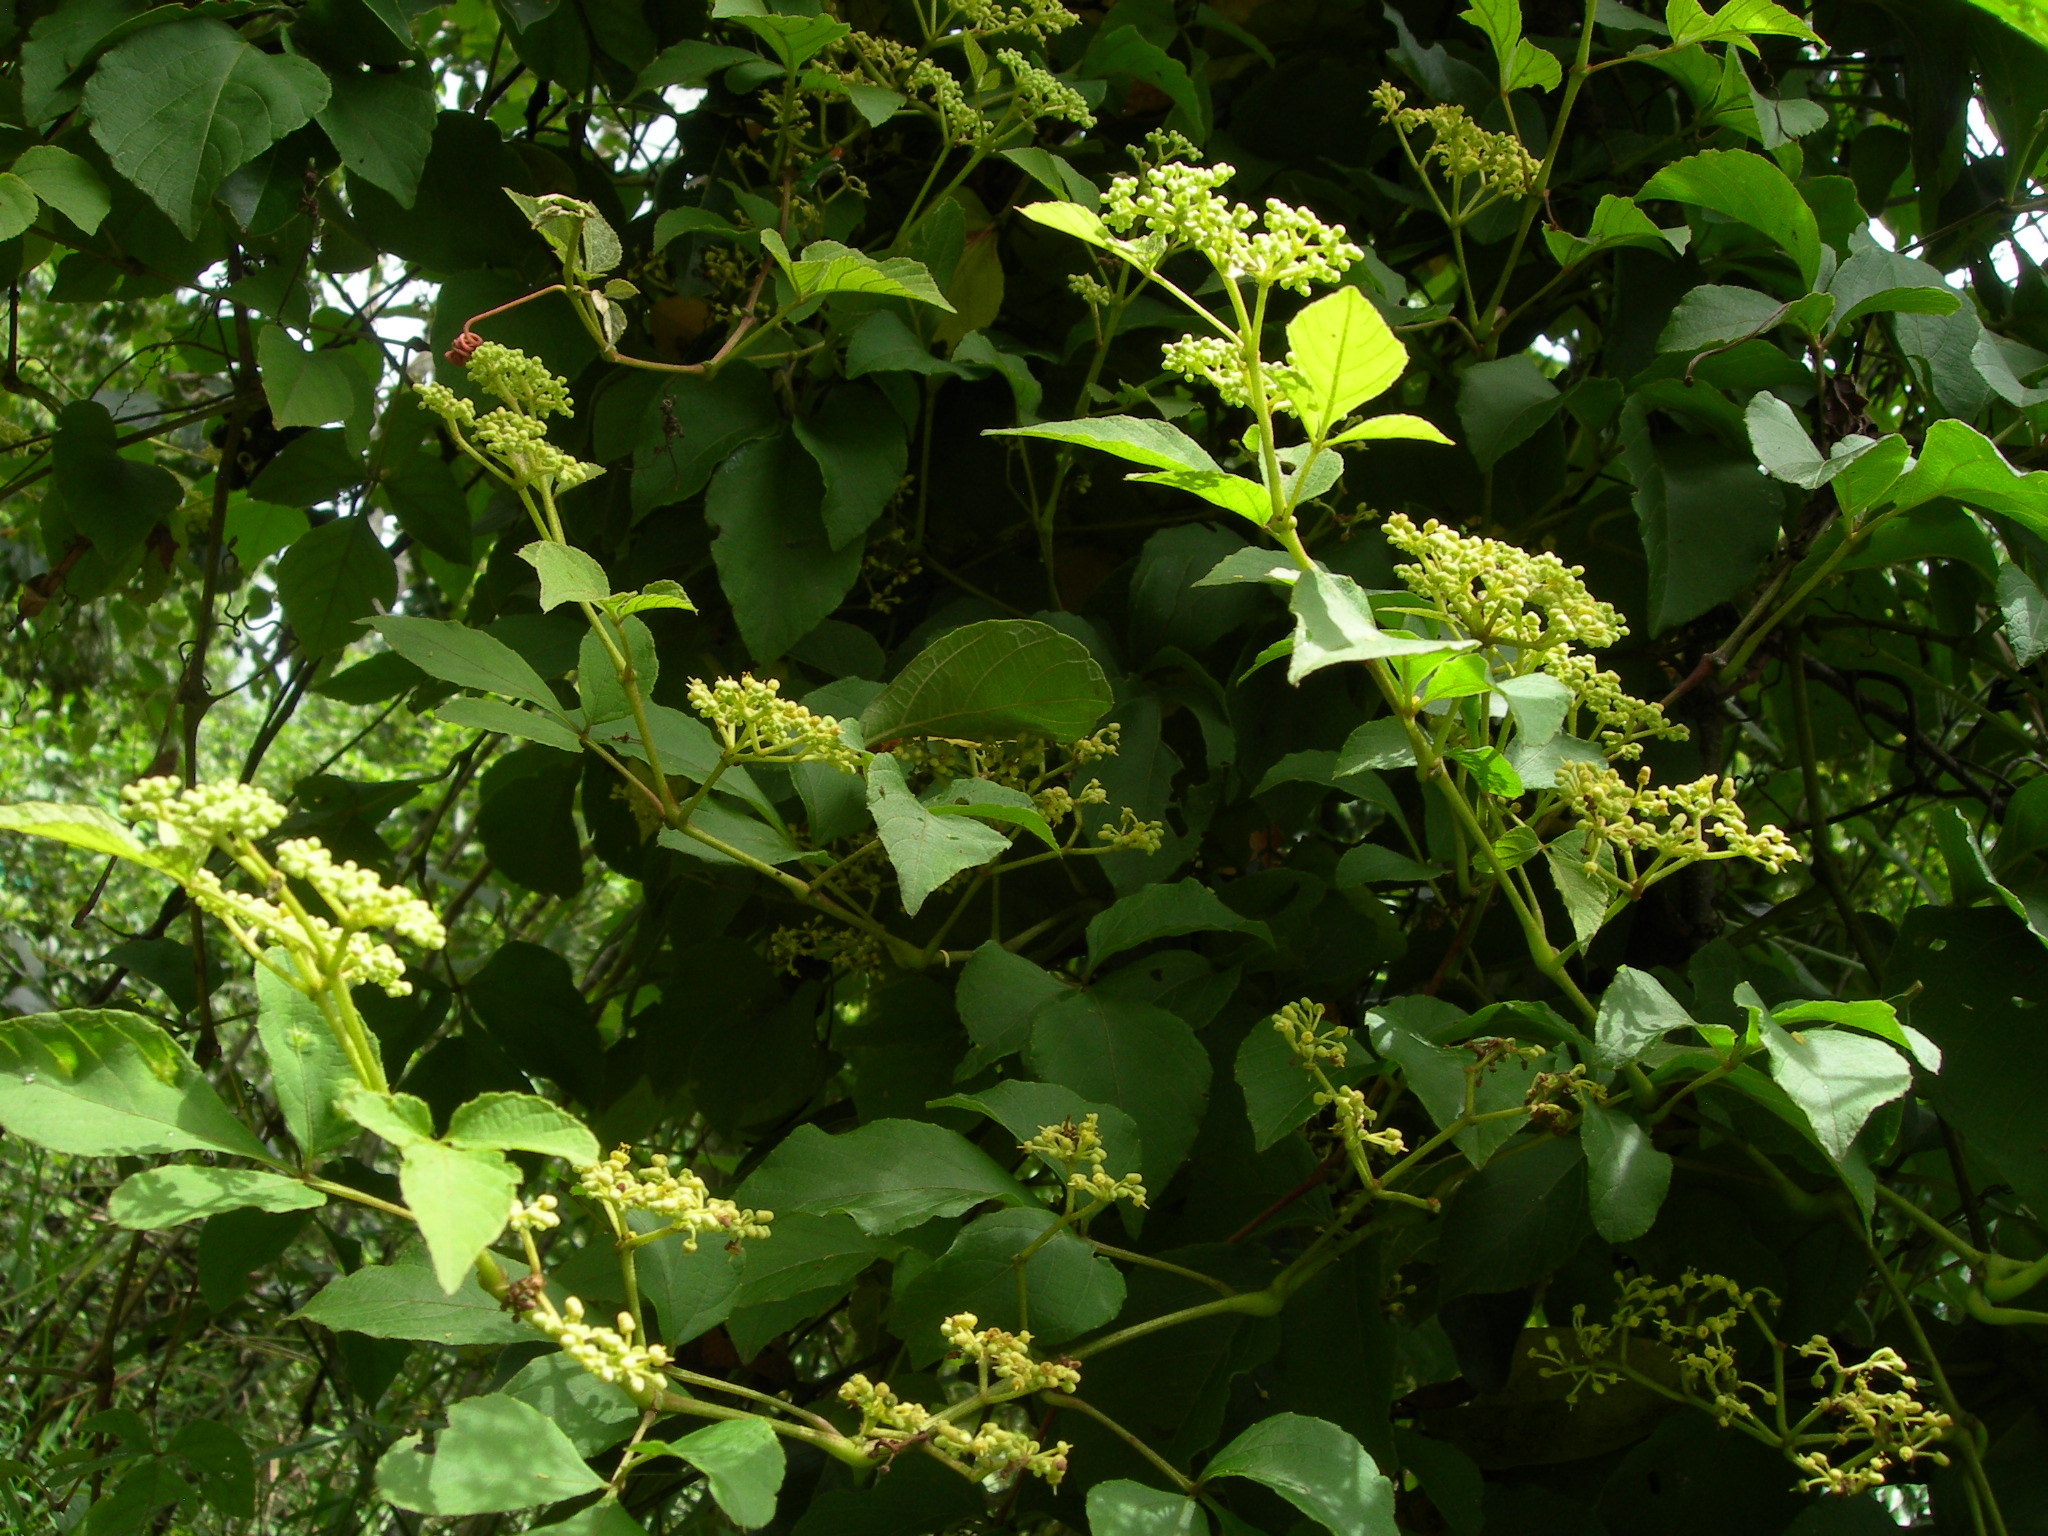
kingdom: Plantae
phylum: Tracheophyta
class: Magnoliopsida
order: Vitales
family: Vitaceae
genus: Cissus
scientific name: Cissus microcarpa
